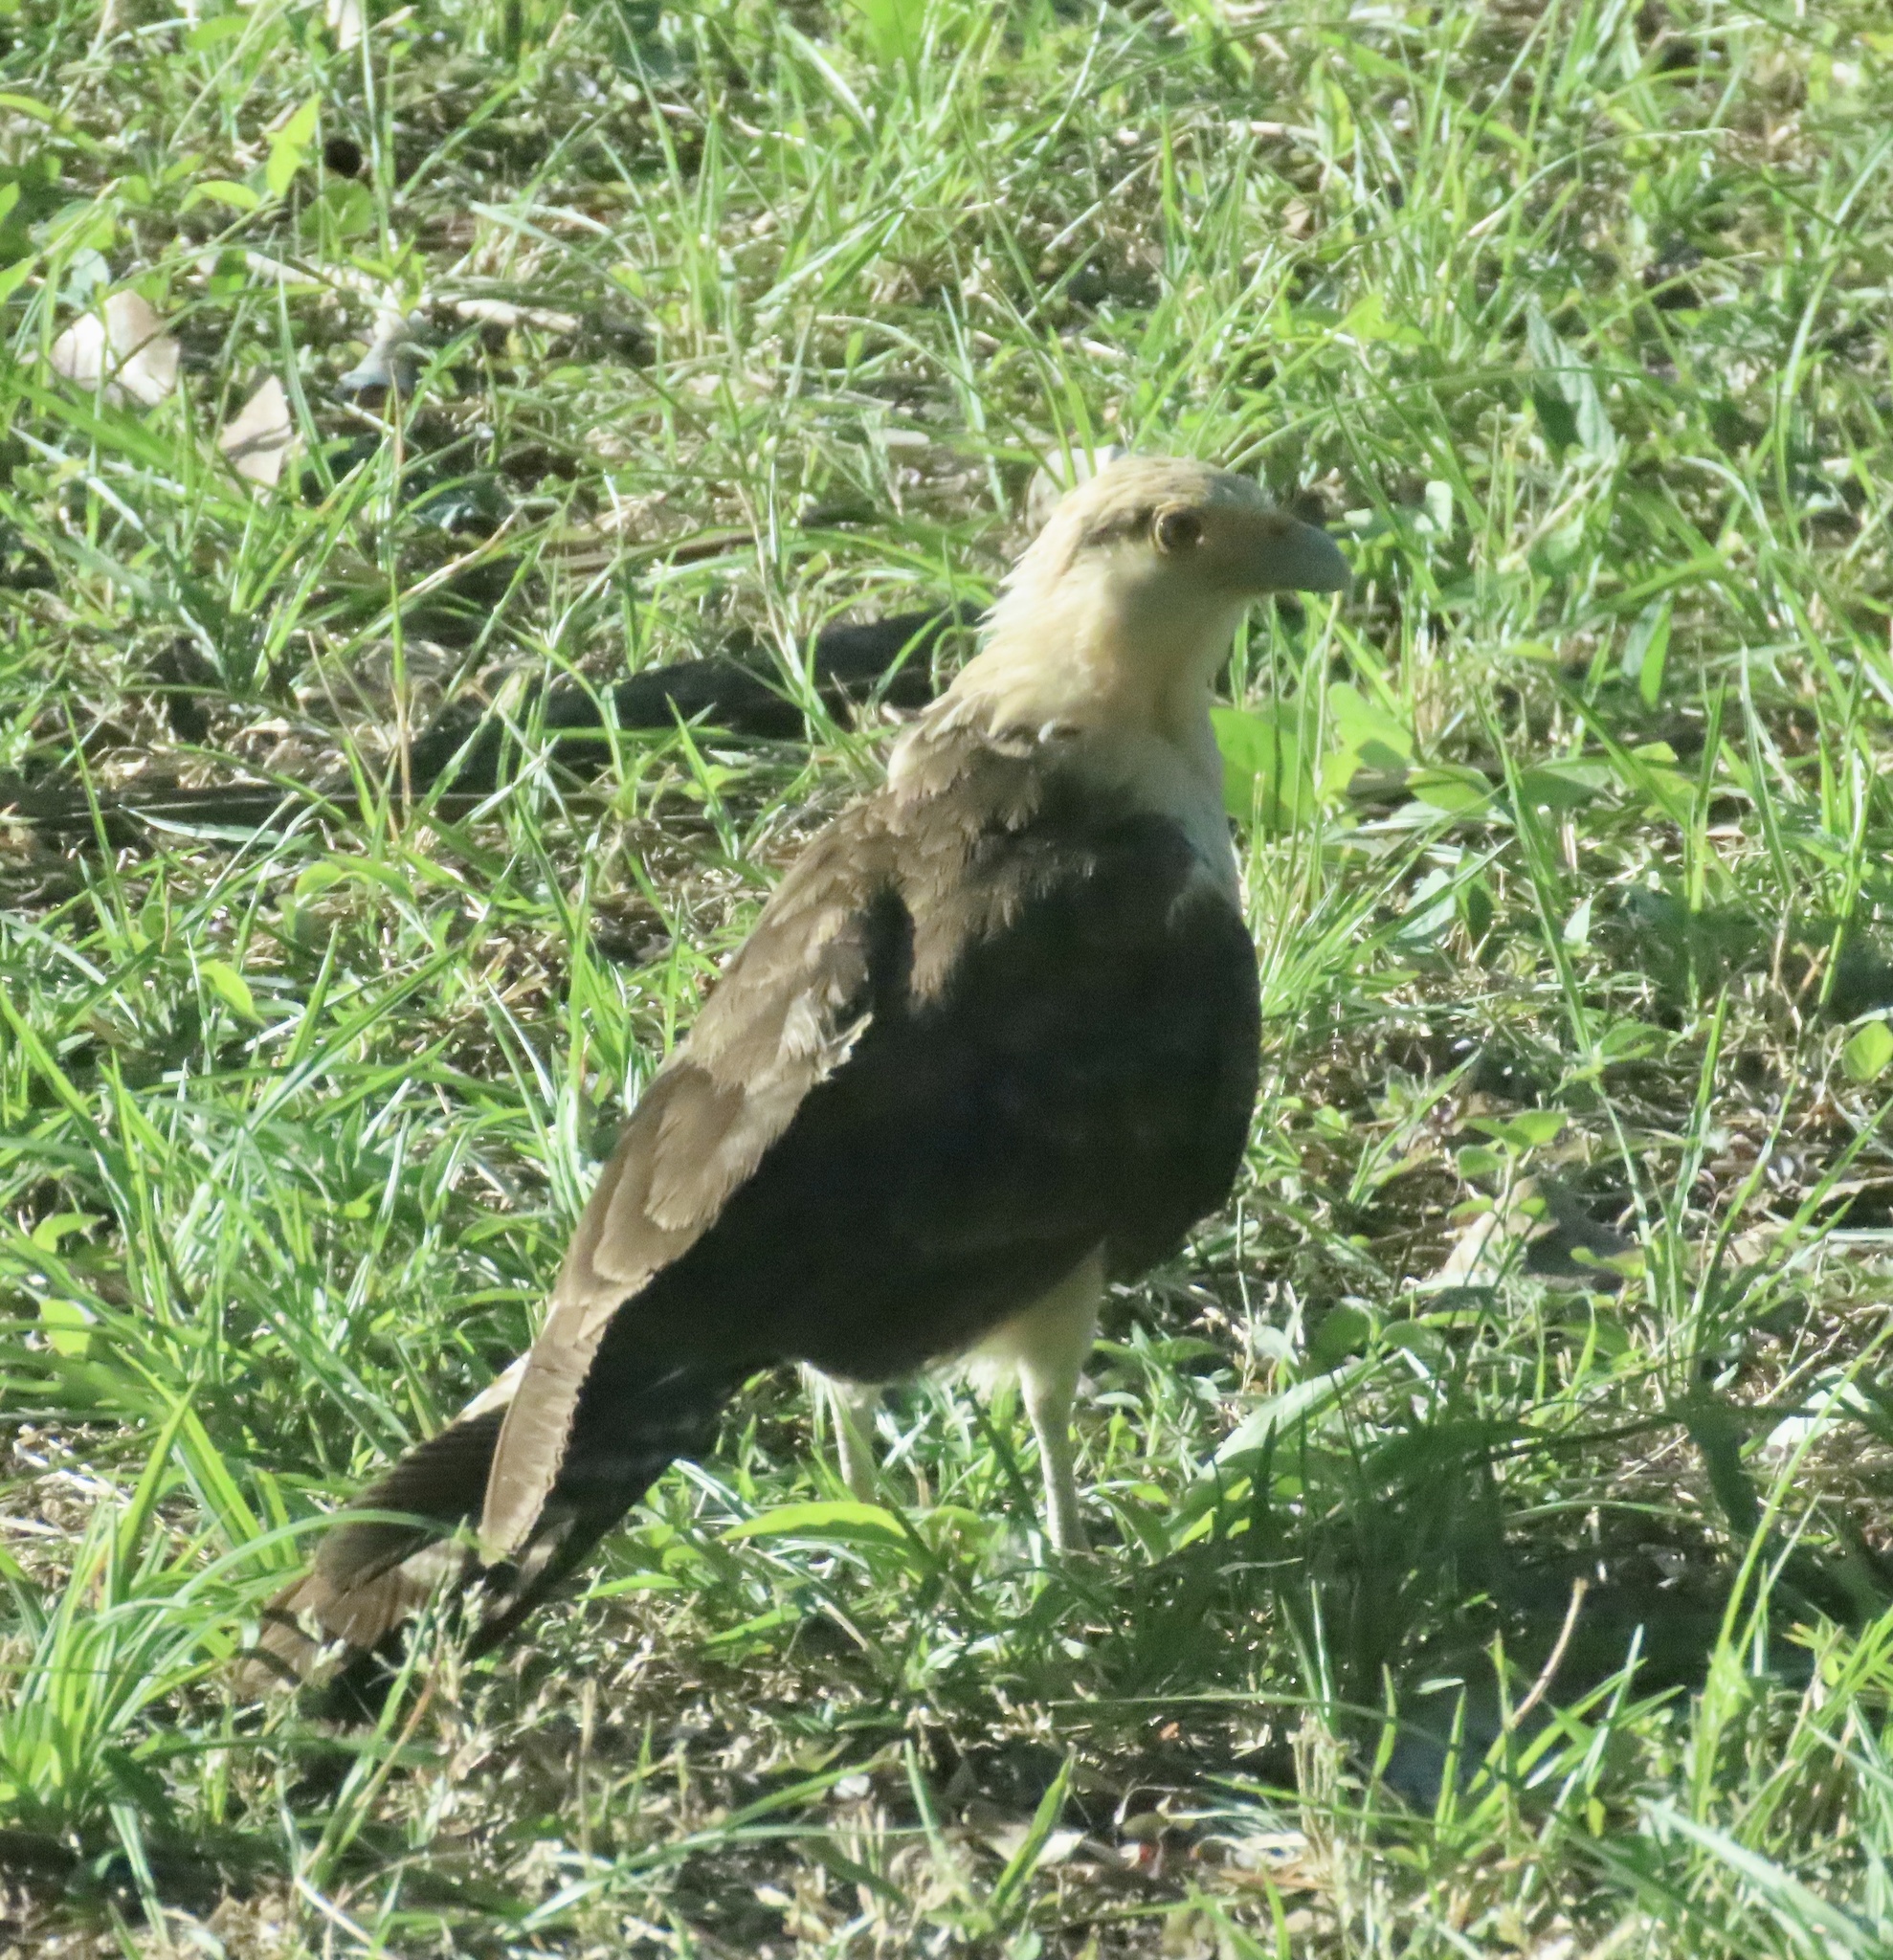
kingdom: Animalia
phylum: Chordata
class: Aves
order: Falconiformes
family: Falconidae
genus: Daptrius
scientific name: Daptrius
